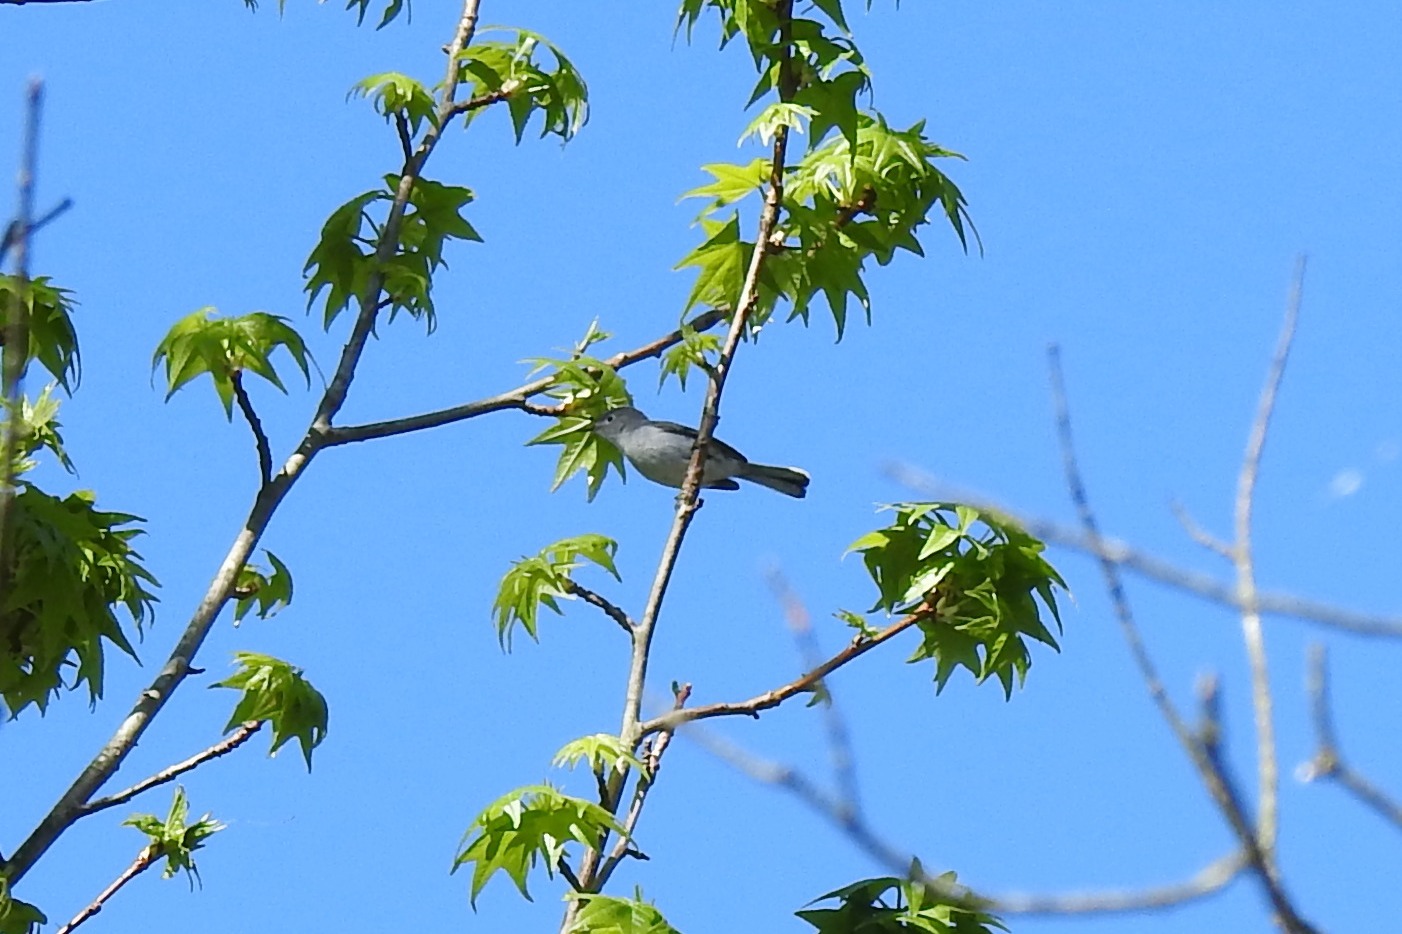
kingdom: Animalia
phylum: Chordata
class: Aves
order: Passeriformes
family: Polioptilidae
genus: Polioptila
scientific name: Polioptila caerulea
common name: Blue-gray gnatcatcher
